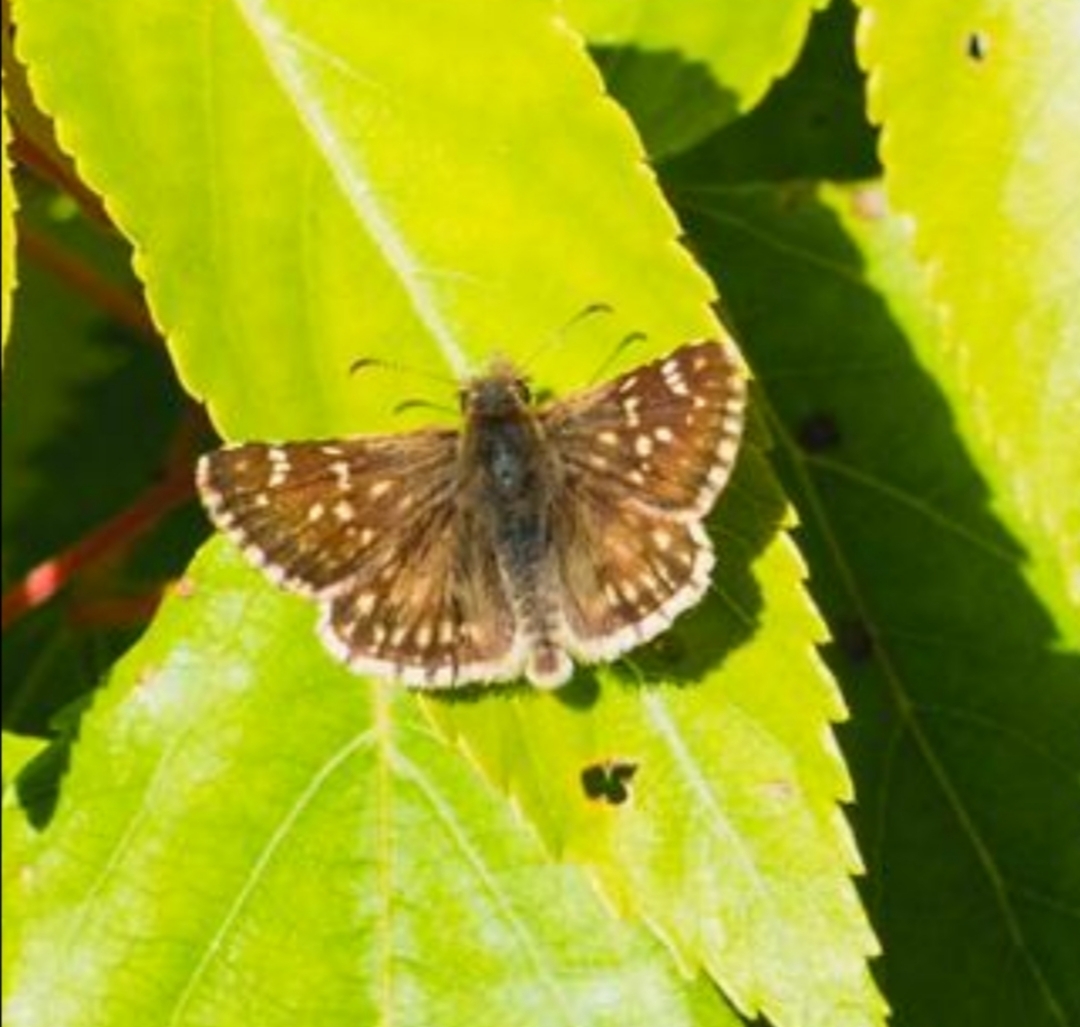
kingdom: Animalia
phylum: Arthropoda
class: Insecta
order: Lepidoptera
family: Hesperiidae
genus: Burnsius
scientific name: Burnsius notatus
